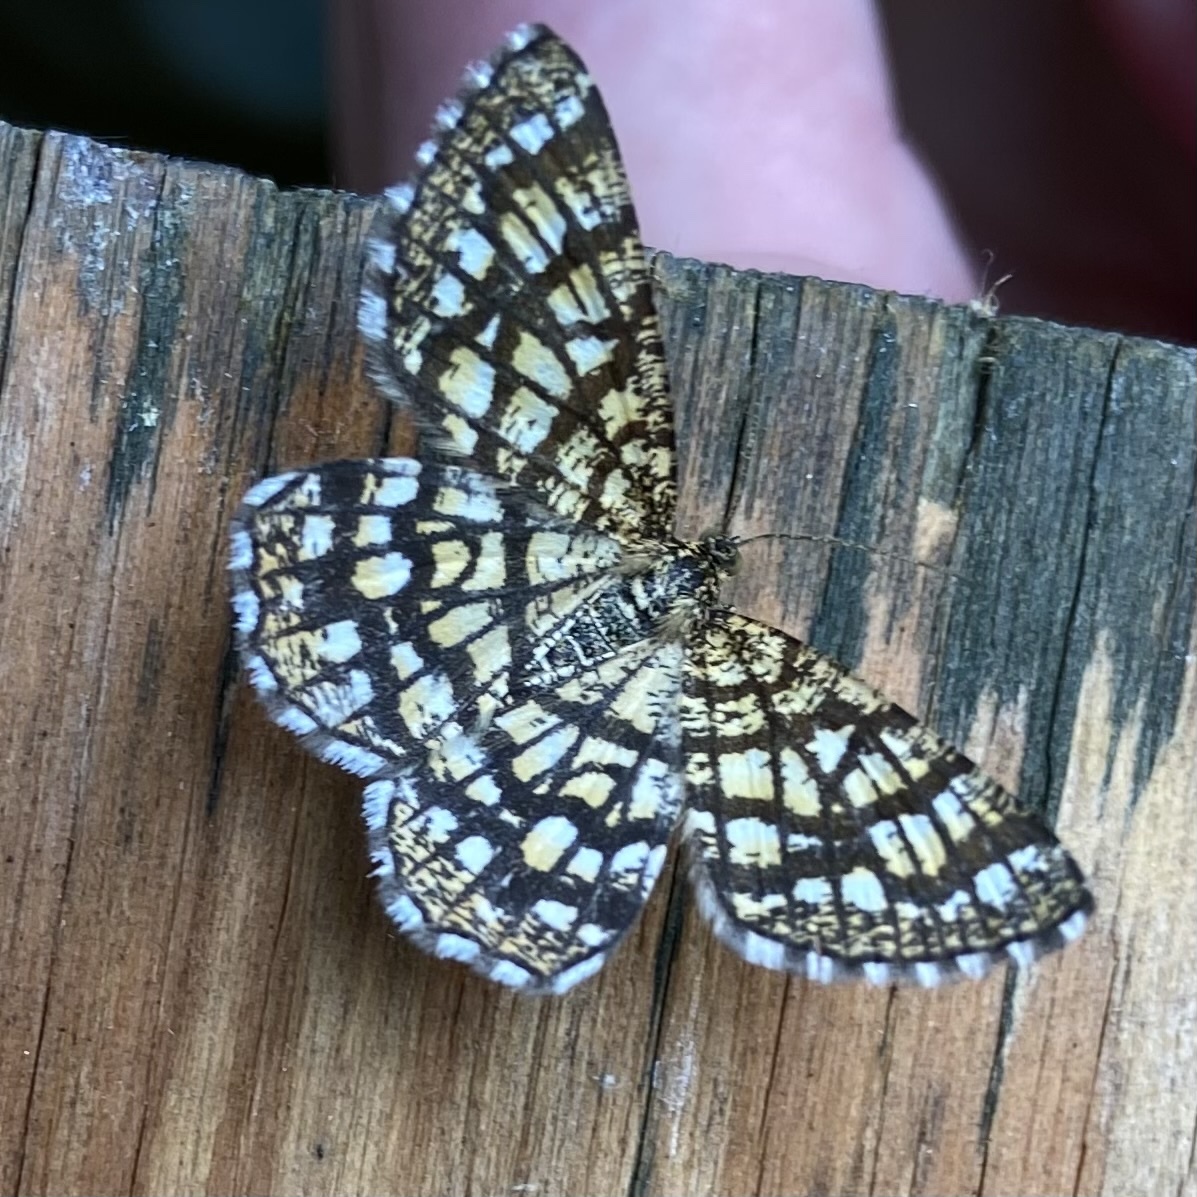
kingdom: Animalia
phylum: Arthropoda
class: Insecta
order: Lepidoptera
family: Geometridae
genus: Chiasmia
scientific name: Chiasmia clathrata
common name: Latticed heath
